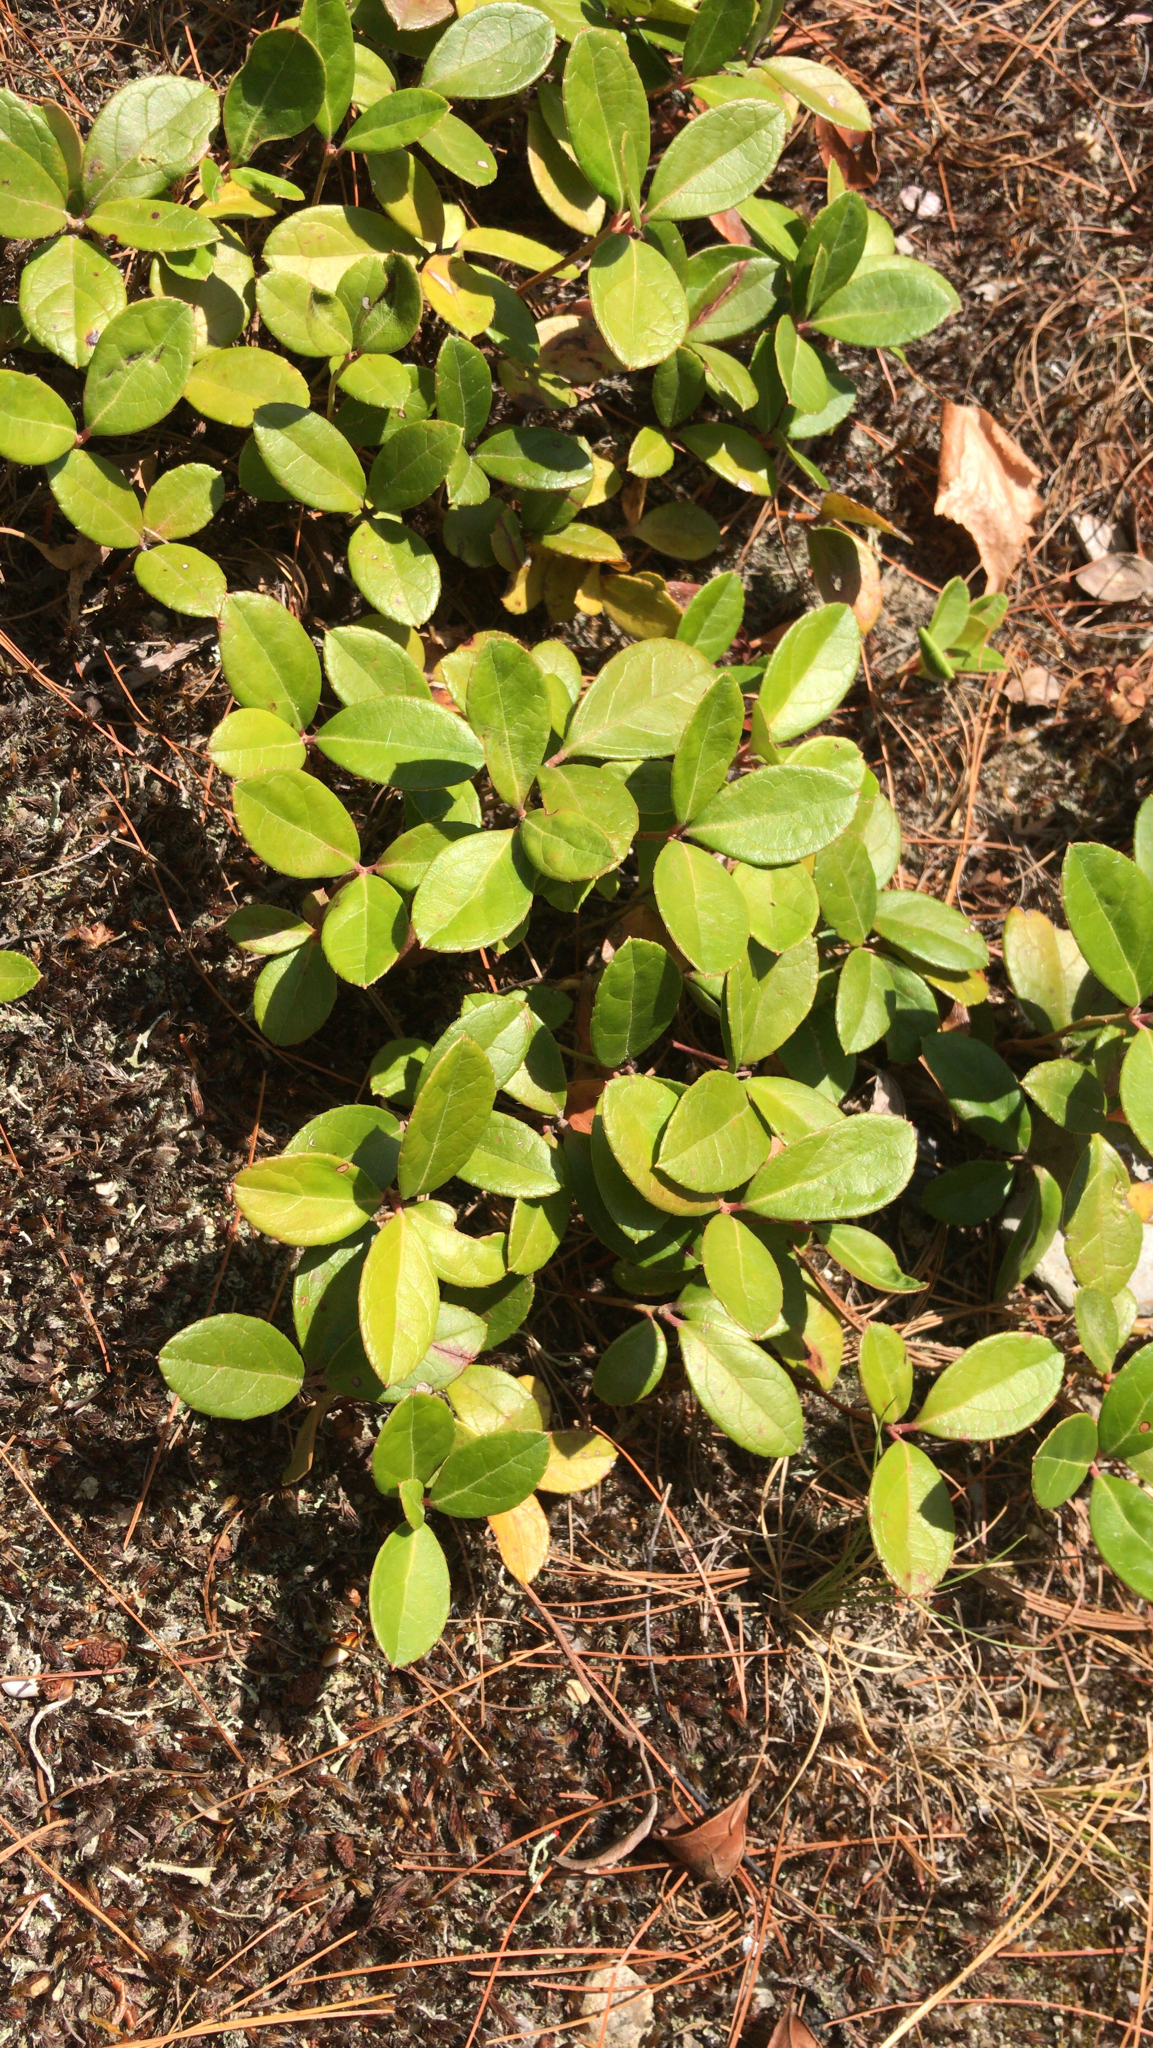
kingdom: Plantae
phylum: Tracheophyta
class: Magnoliopsida
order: Ericales
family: Ericaceae
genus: Gaultheria
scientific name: Gaultheria procumbens
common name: Checkerberry
